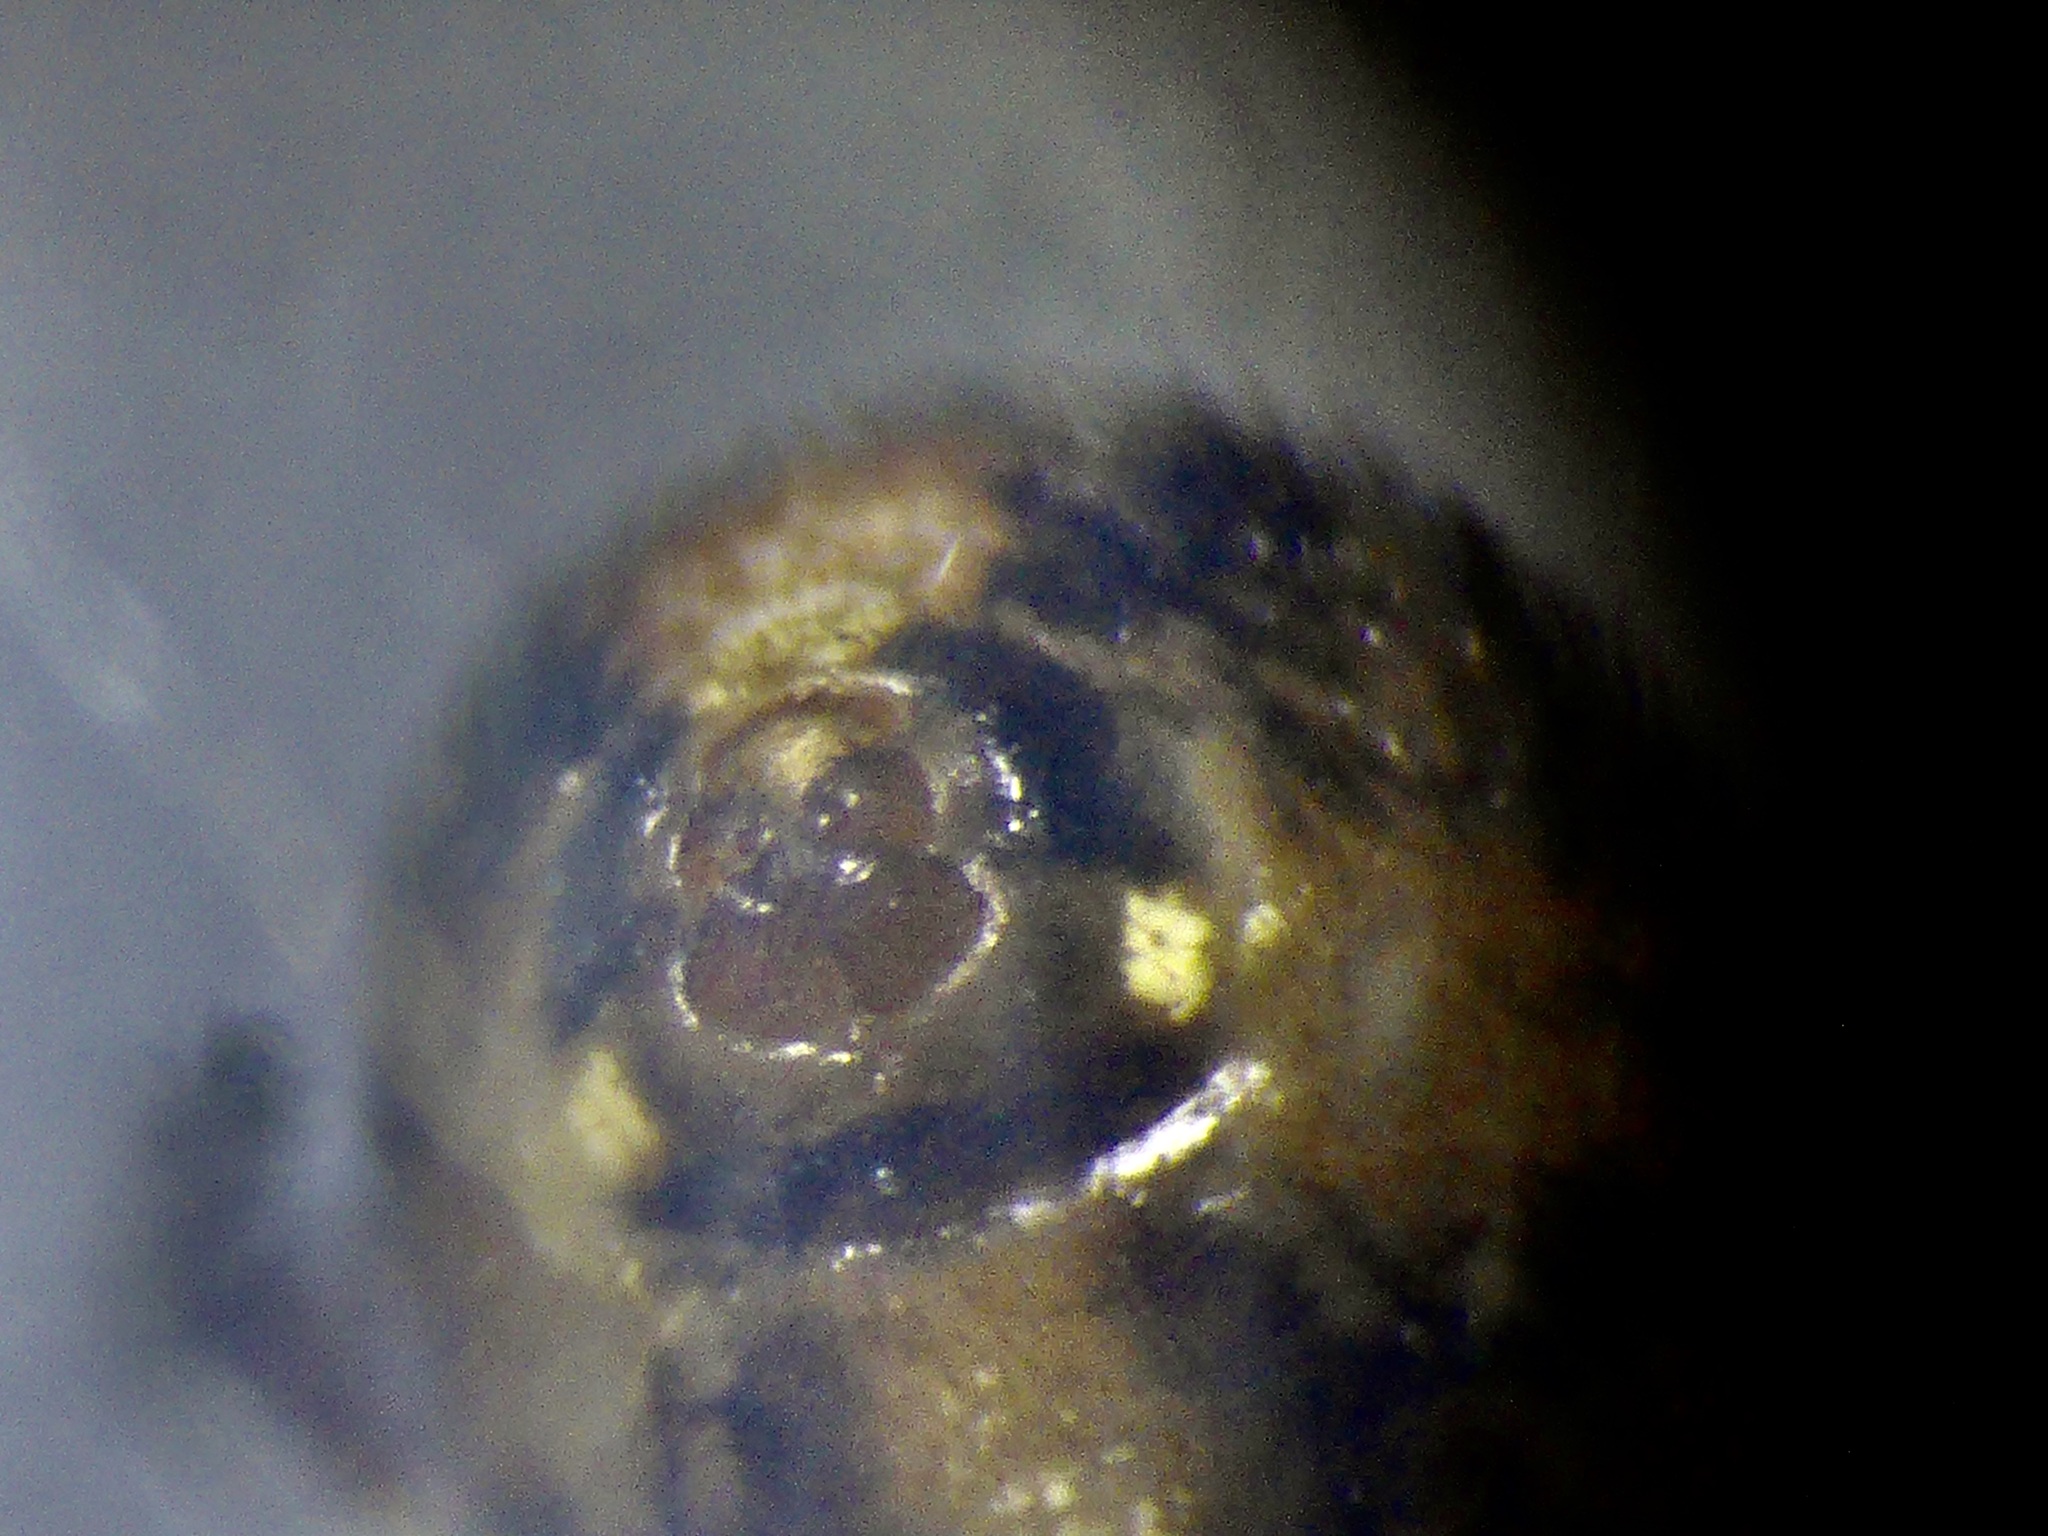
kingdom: Animalia
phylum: Arthropoda
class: Arachnida
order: Araneae
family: Theridiidae
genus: Cryptachaea
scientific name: Cryptachaea veruculata
